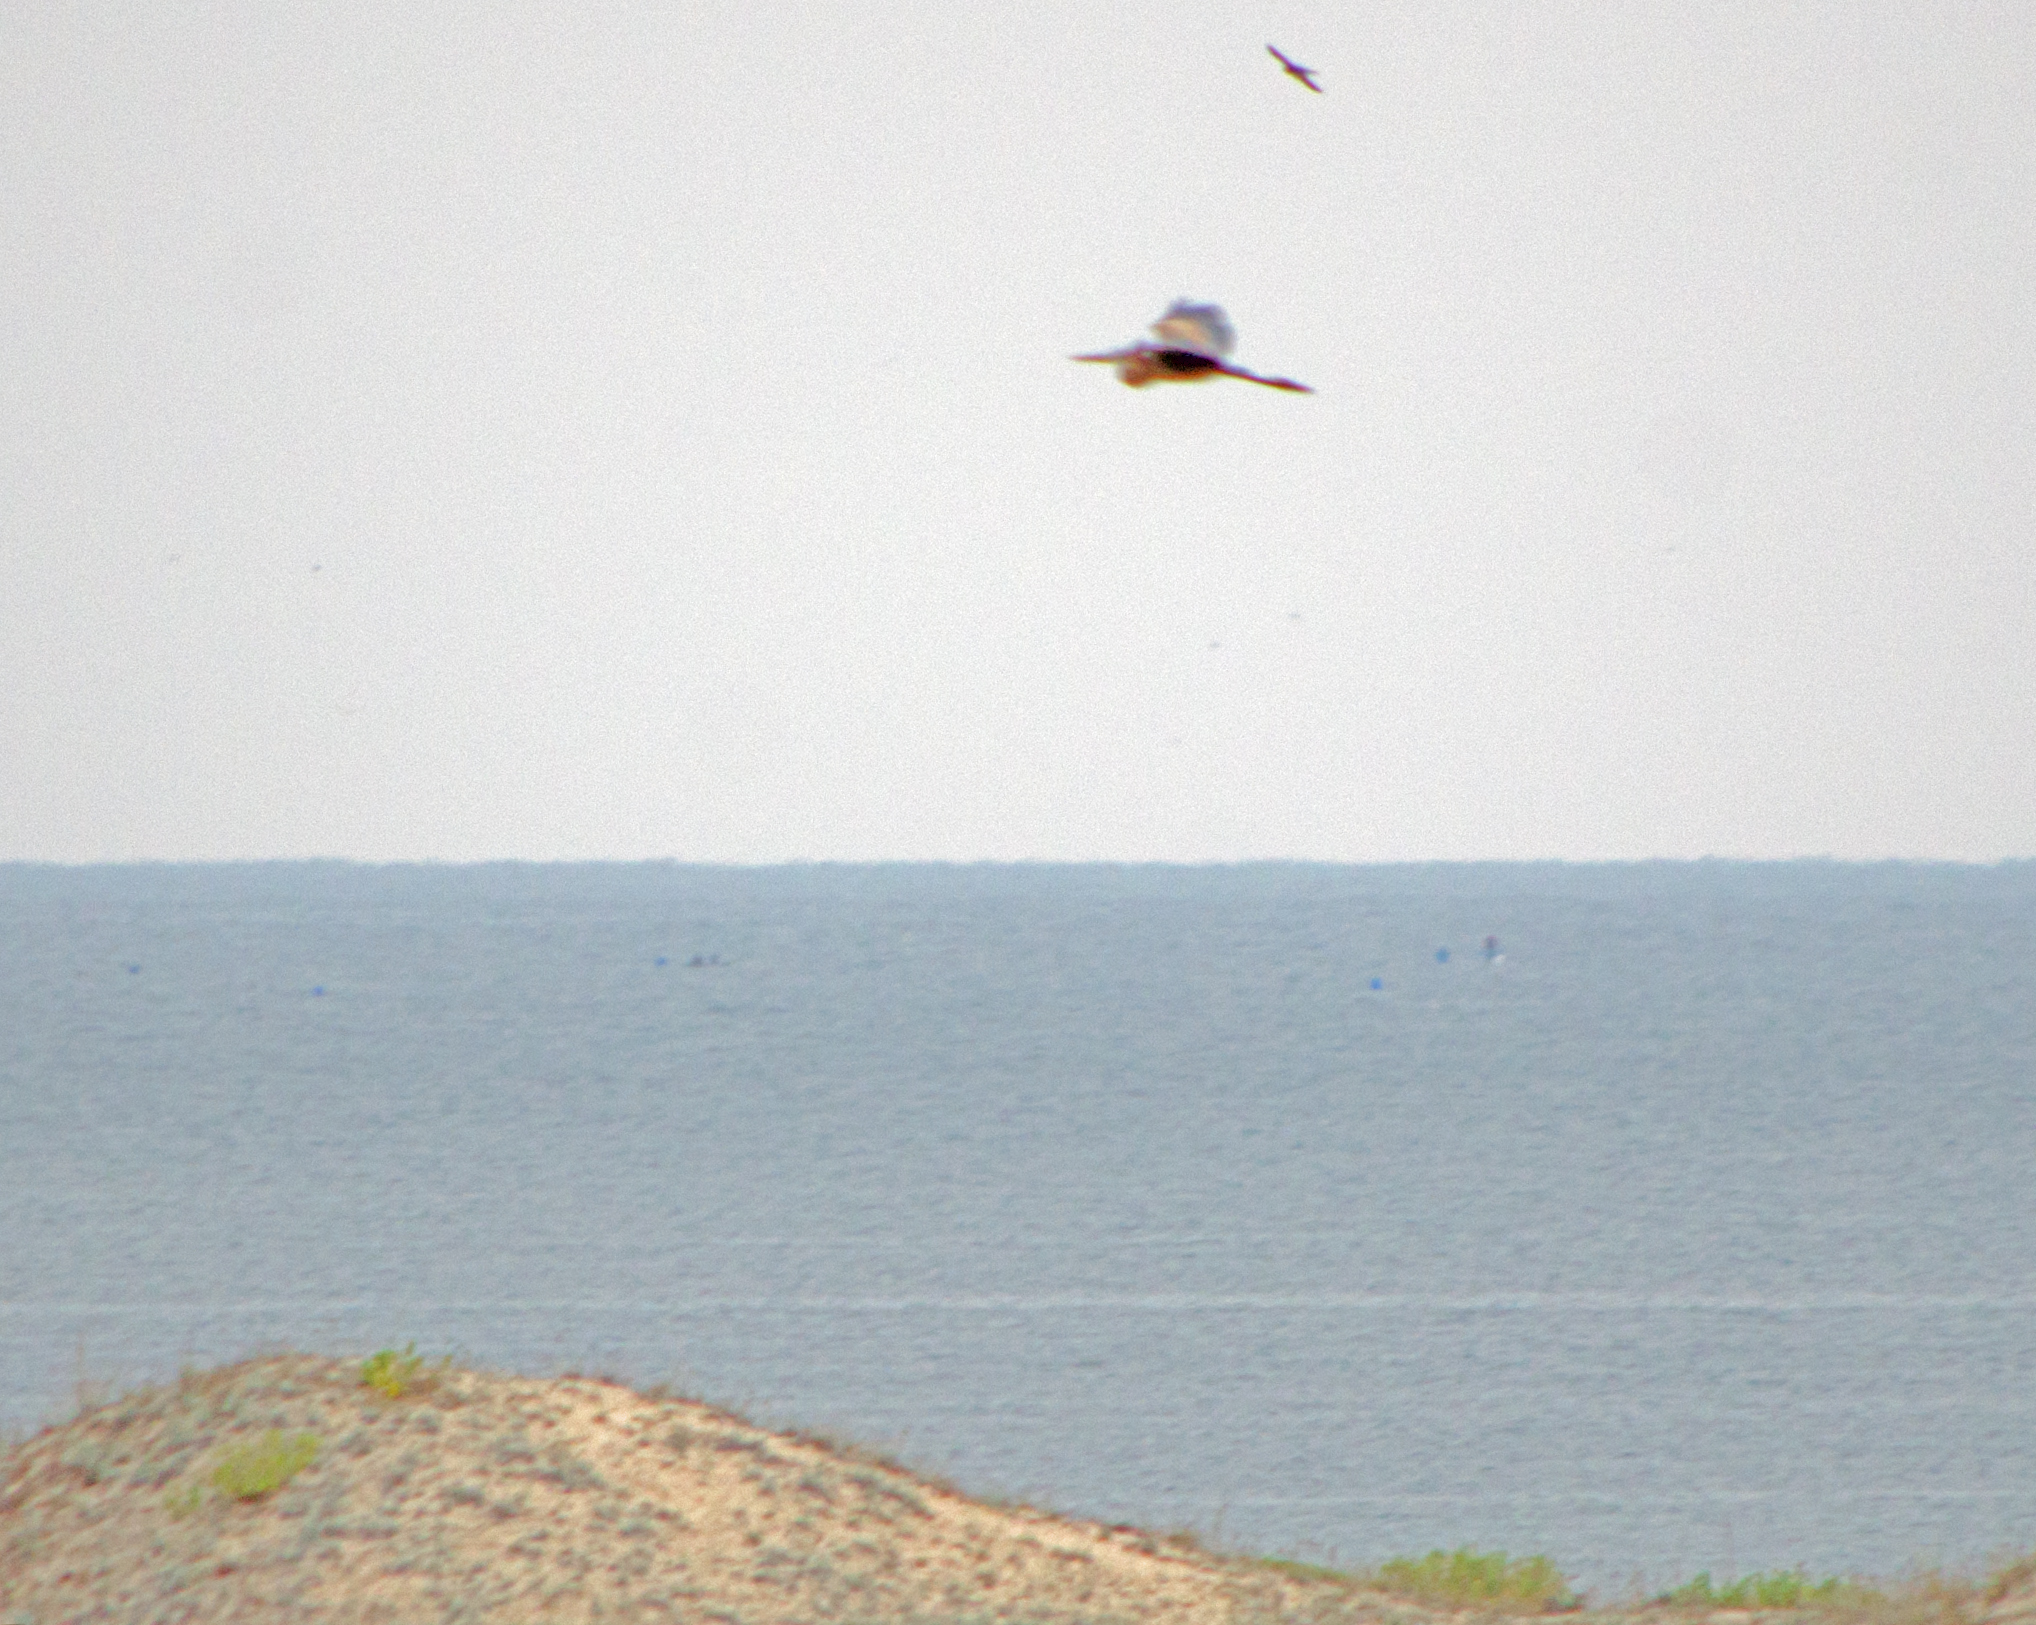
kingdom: Animalia
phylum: Chordata
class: Aves
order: Pelecaniformes
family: Ardeidae
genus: Ardea
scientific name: Ardea purpurea
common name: Purple heron
